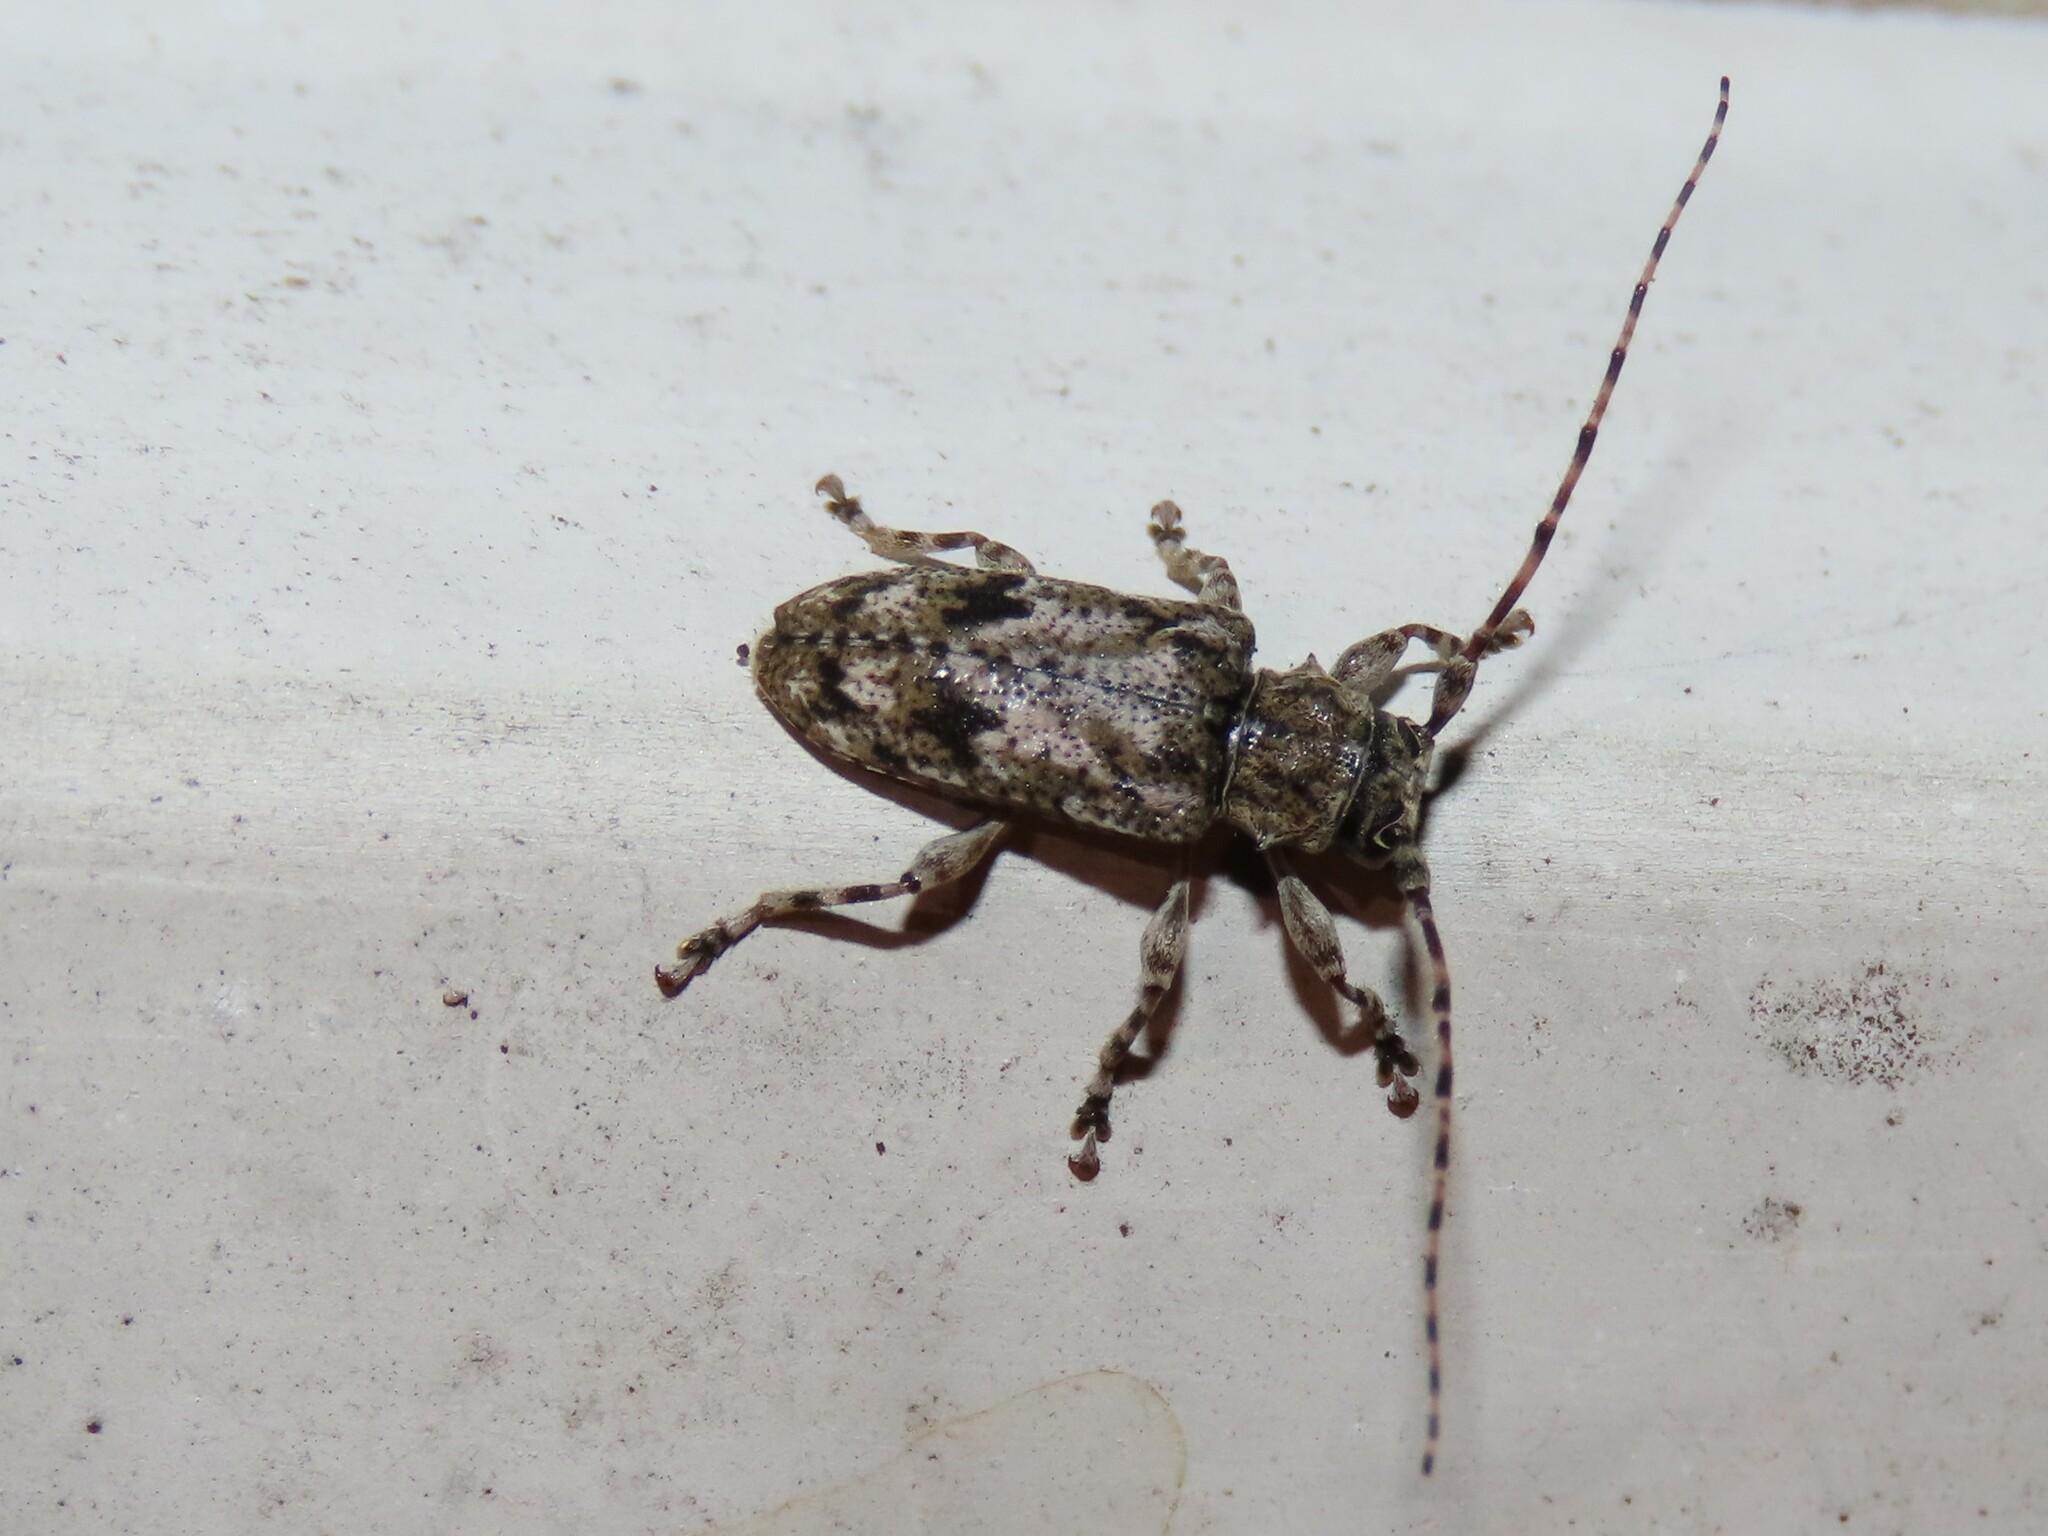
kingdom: Animalia
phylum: Arthropoda
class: Insecta
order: Coleoptera
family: Cerambycidae
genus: Aegomorphus
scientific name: Aegomorphus modestus
